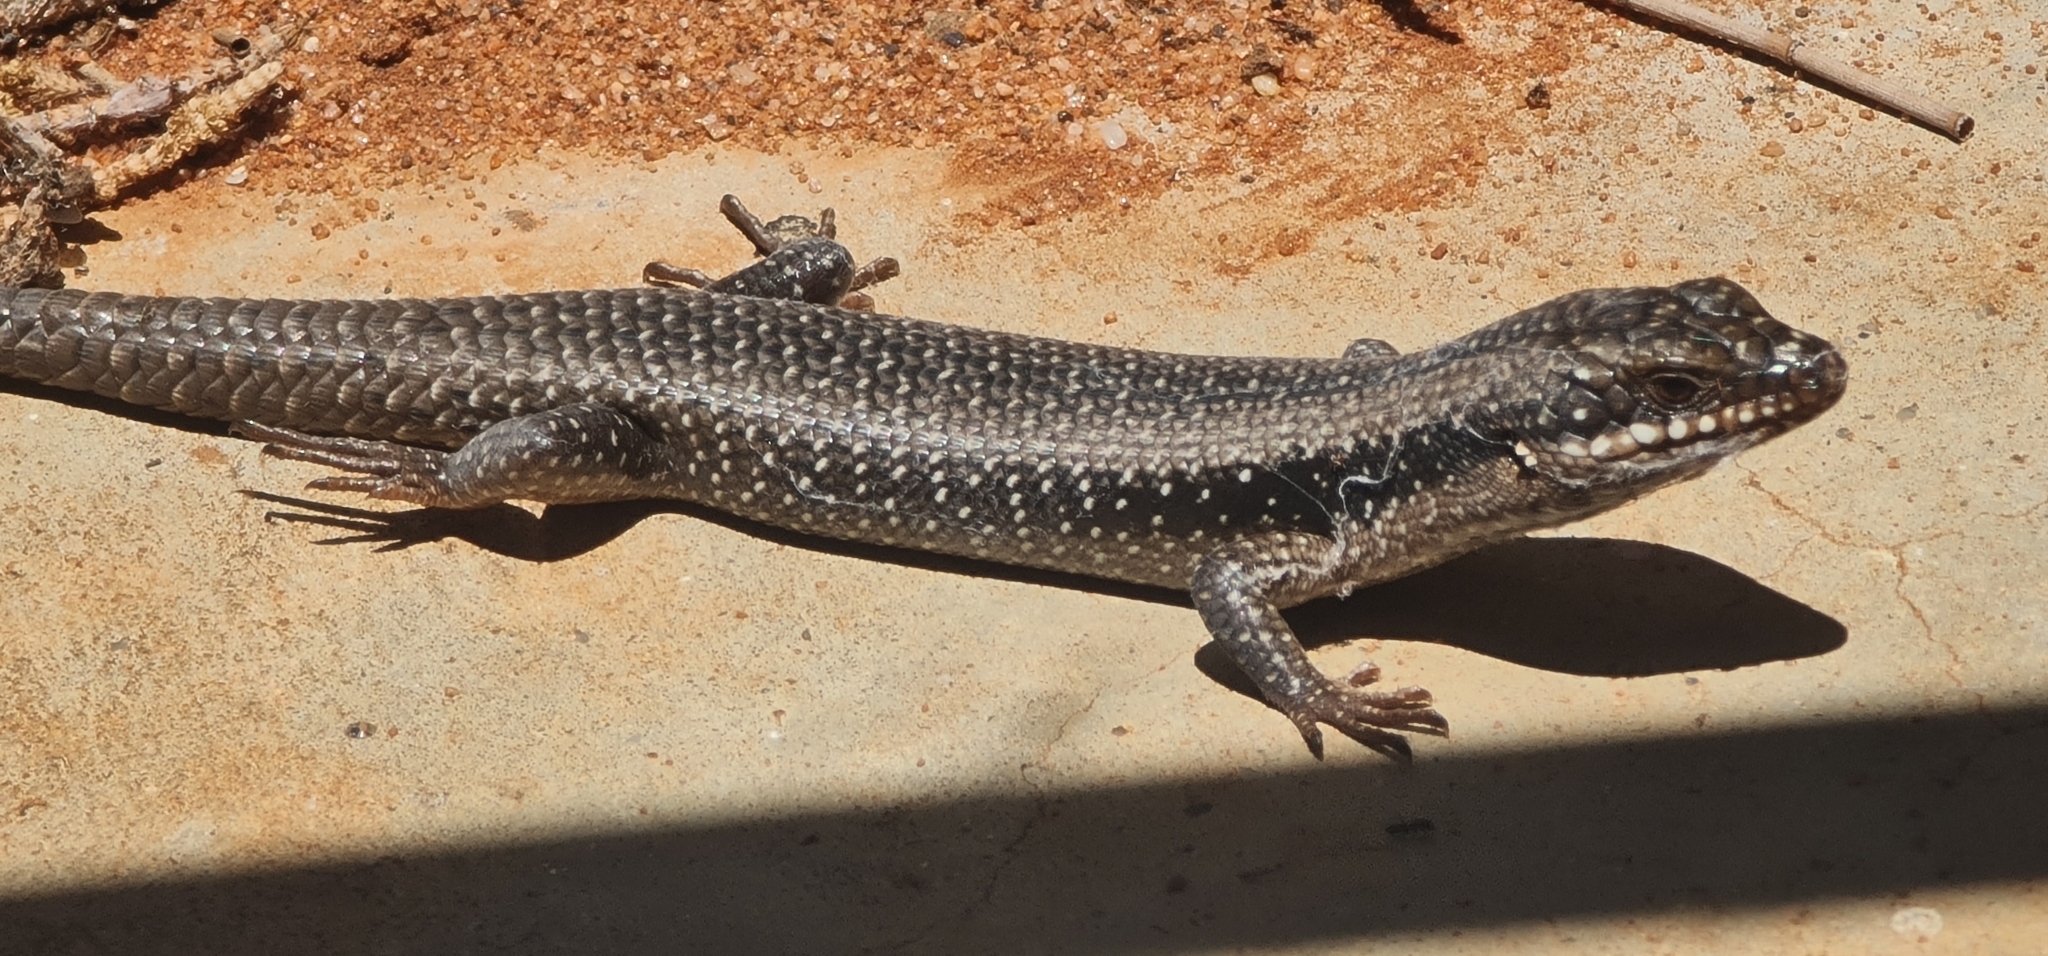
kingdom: Animalia
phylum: Chordata
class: Squamata
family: Scincidae
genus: Egernia
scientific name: Egernia striolata
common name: Tree skink
